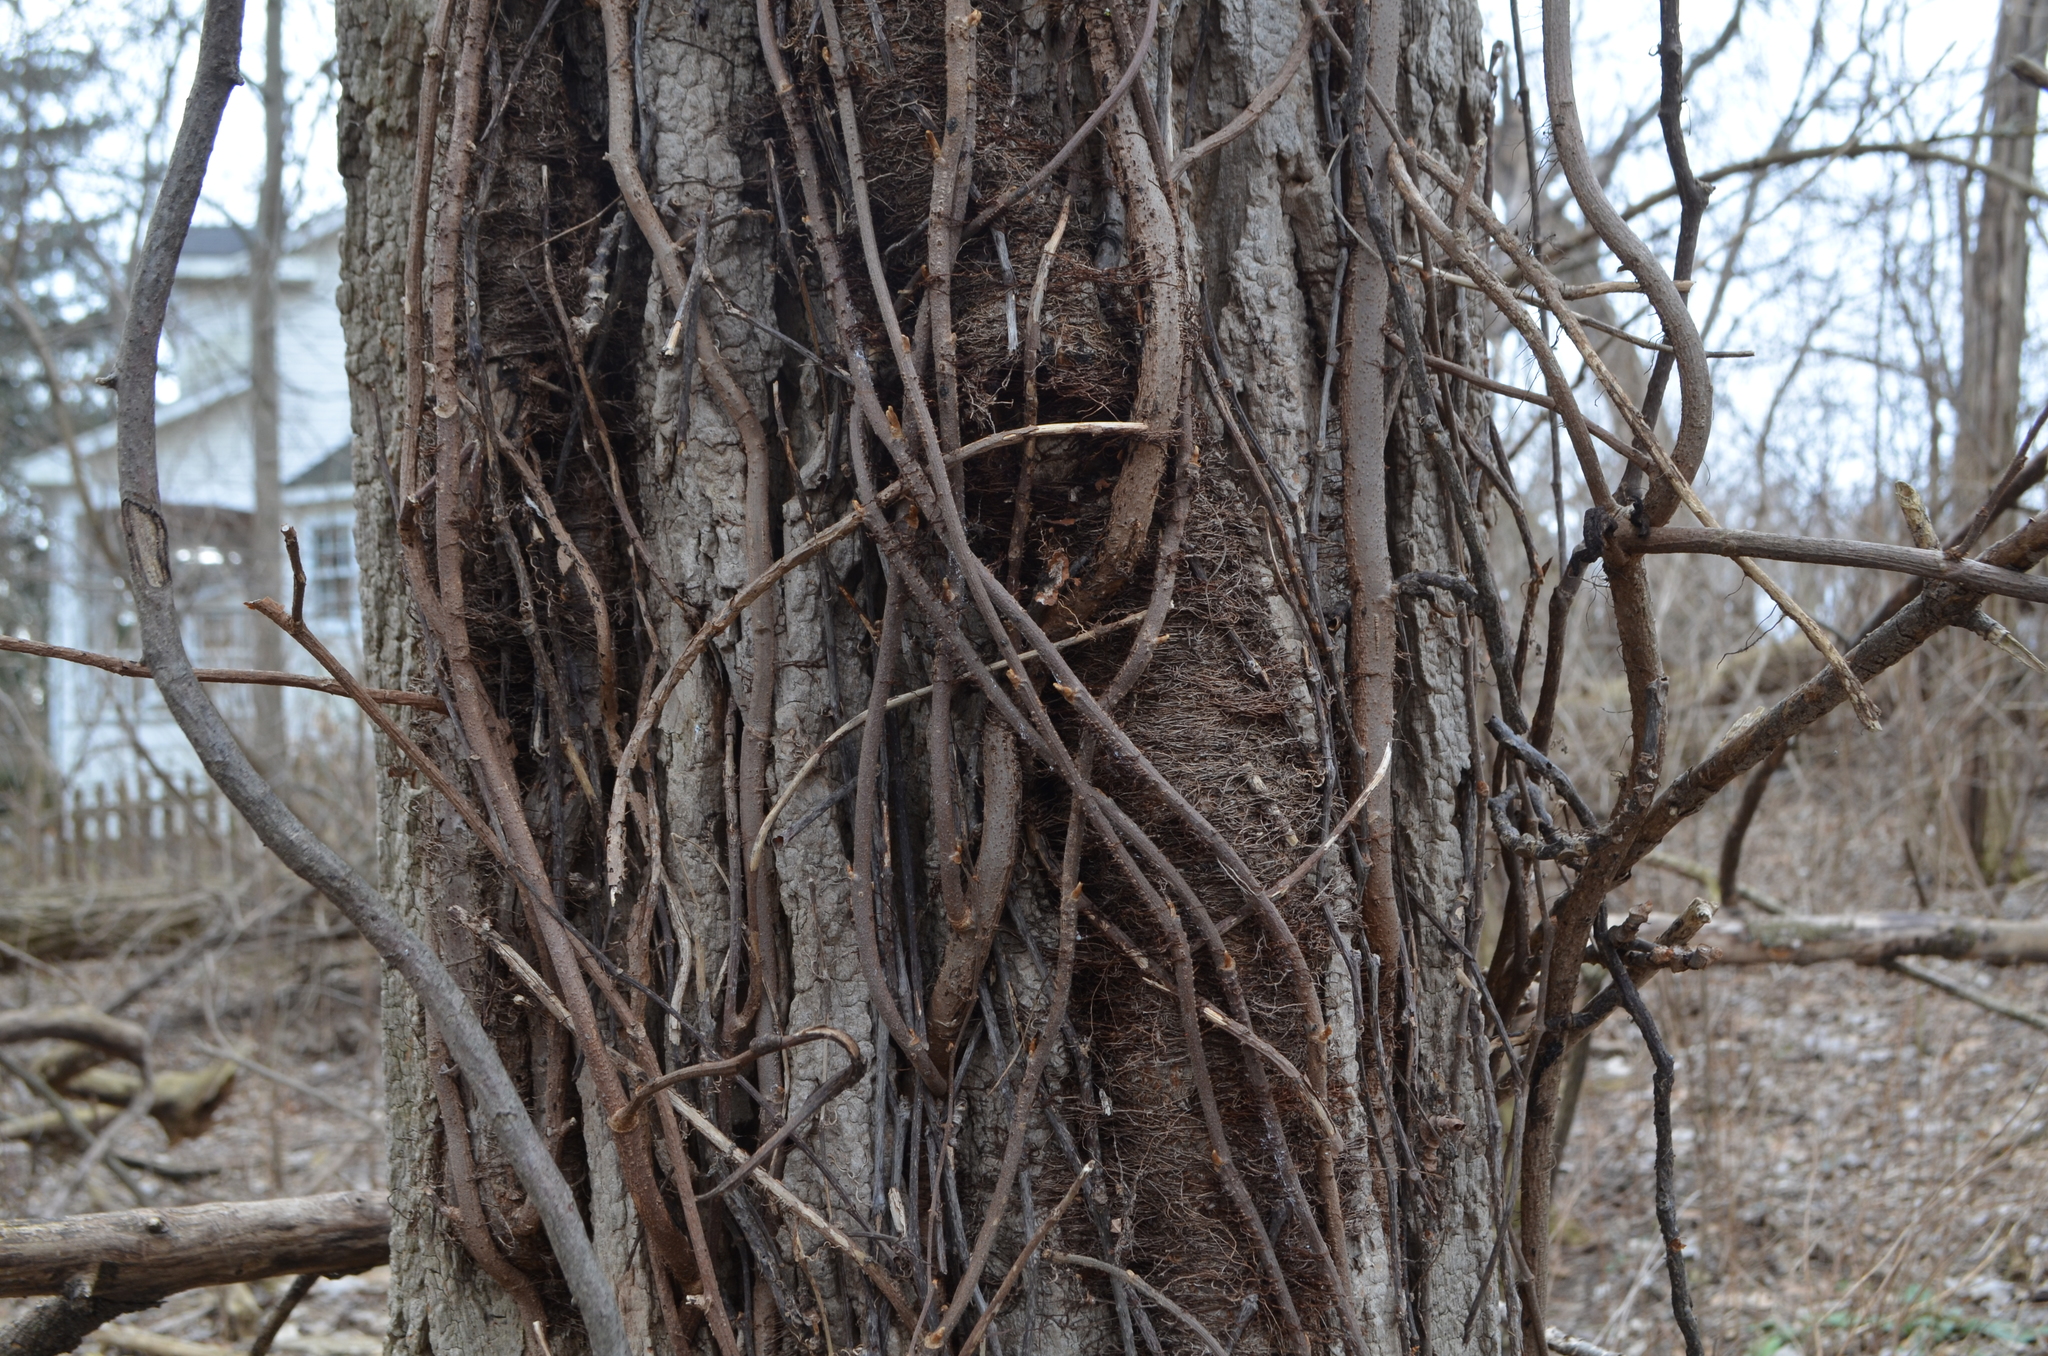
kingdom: Plantae
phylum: Tracheophyta
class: Magnoliopsida
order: Sapindales
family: Anacardiaceae
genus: Toxicodendron
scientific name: Toxicodendron radicans
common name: Poison ivy
